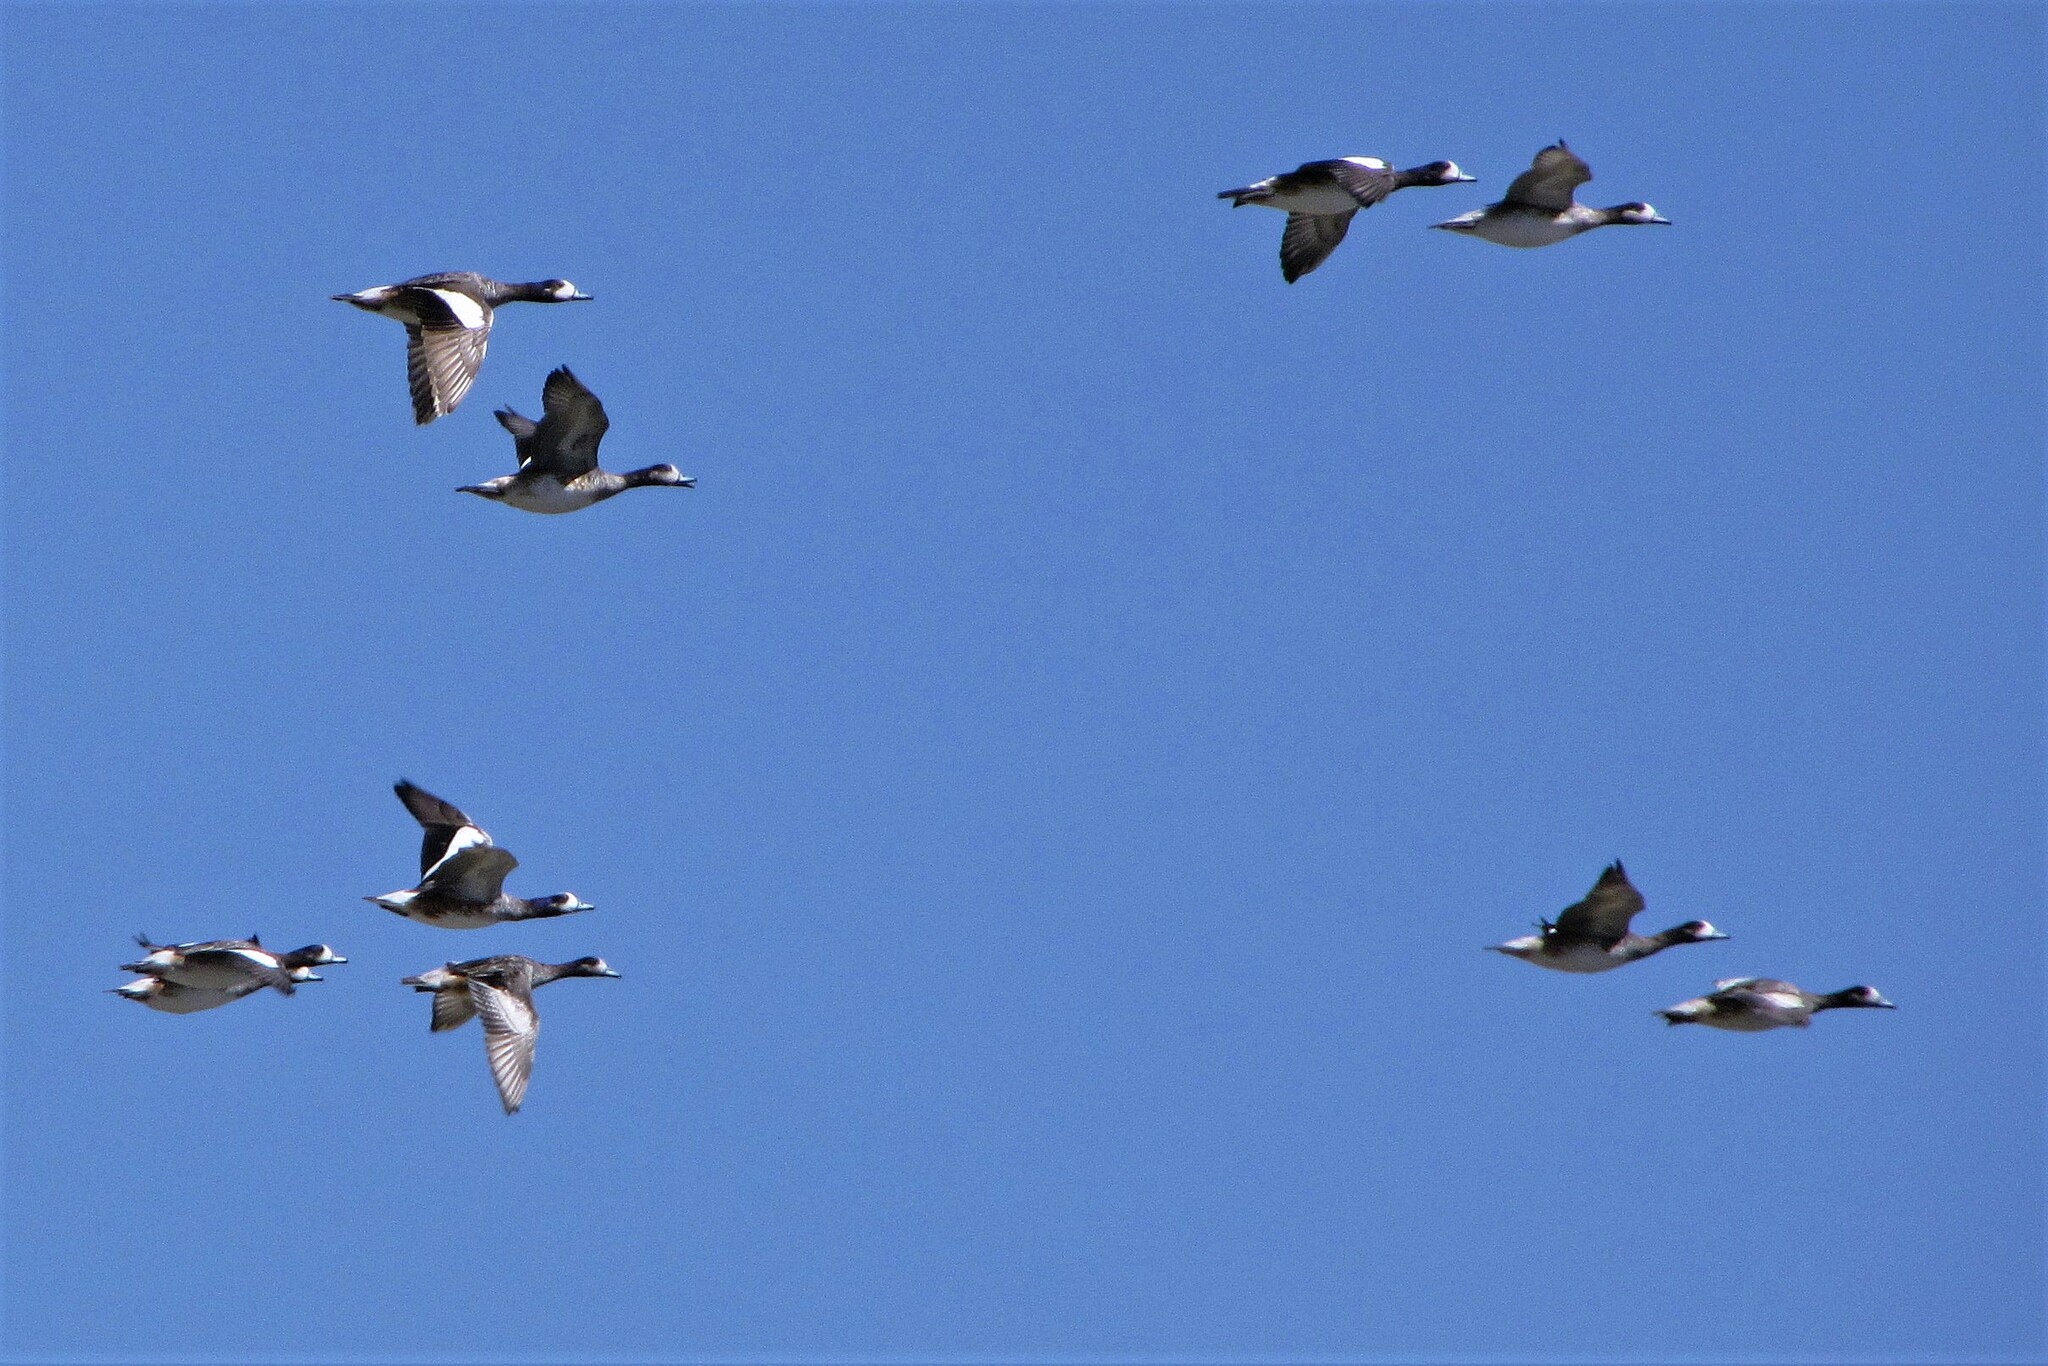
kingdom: Animalia
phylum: Chordata
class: Aves
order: Anseriformes
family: Anatidae
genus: Mareca
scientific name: Mareca sibilatrix
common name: Chiloe wigeon
